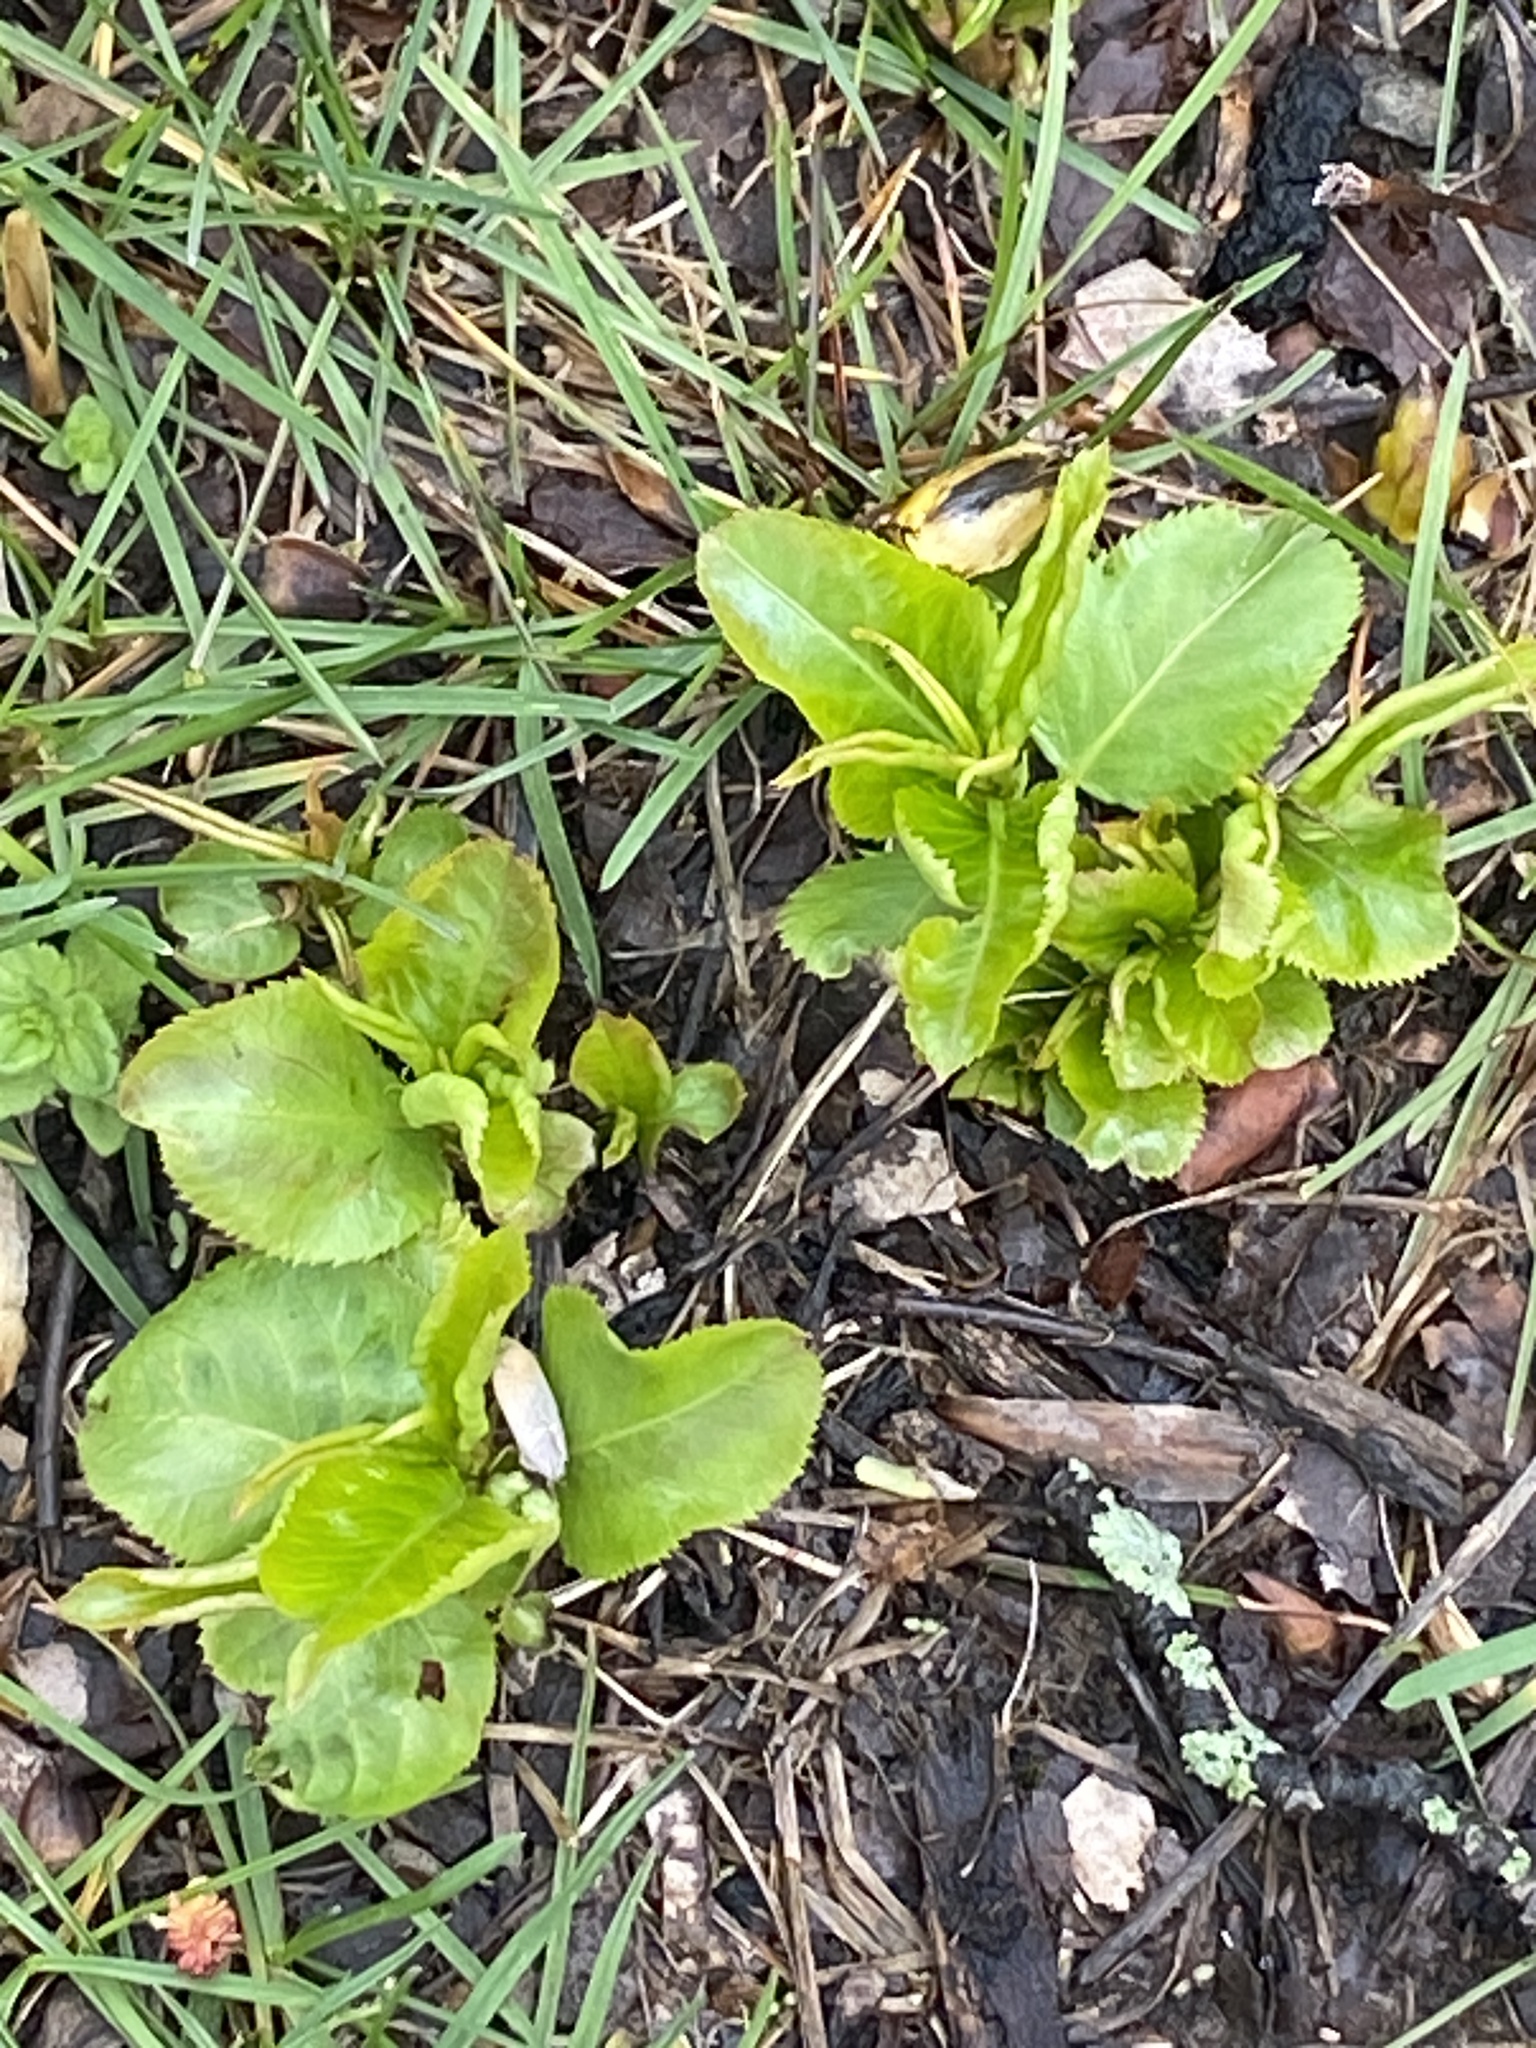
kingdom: Plantae
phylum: Tracheophyta
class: Magnoliopsida
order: Rosales
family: Rosaceae
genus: Pyrus
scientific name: Pyrus calleryana
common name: Callery pear
